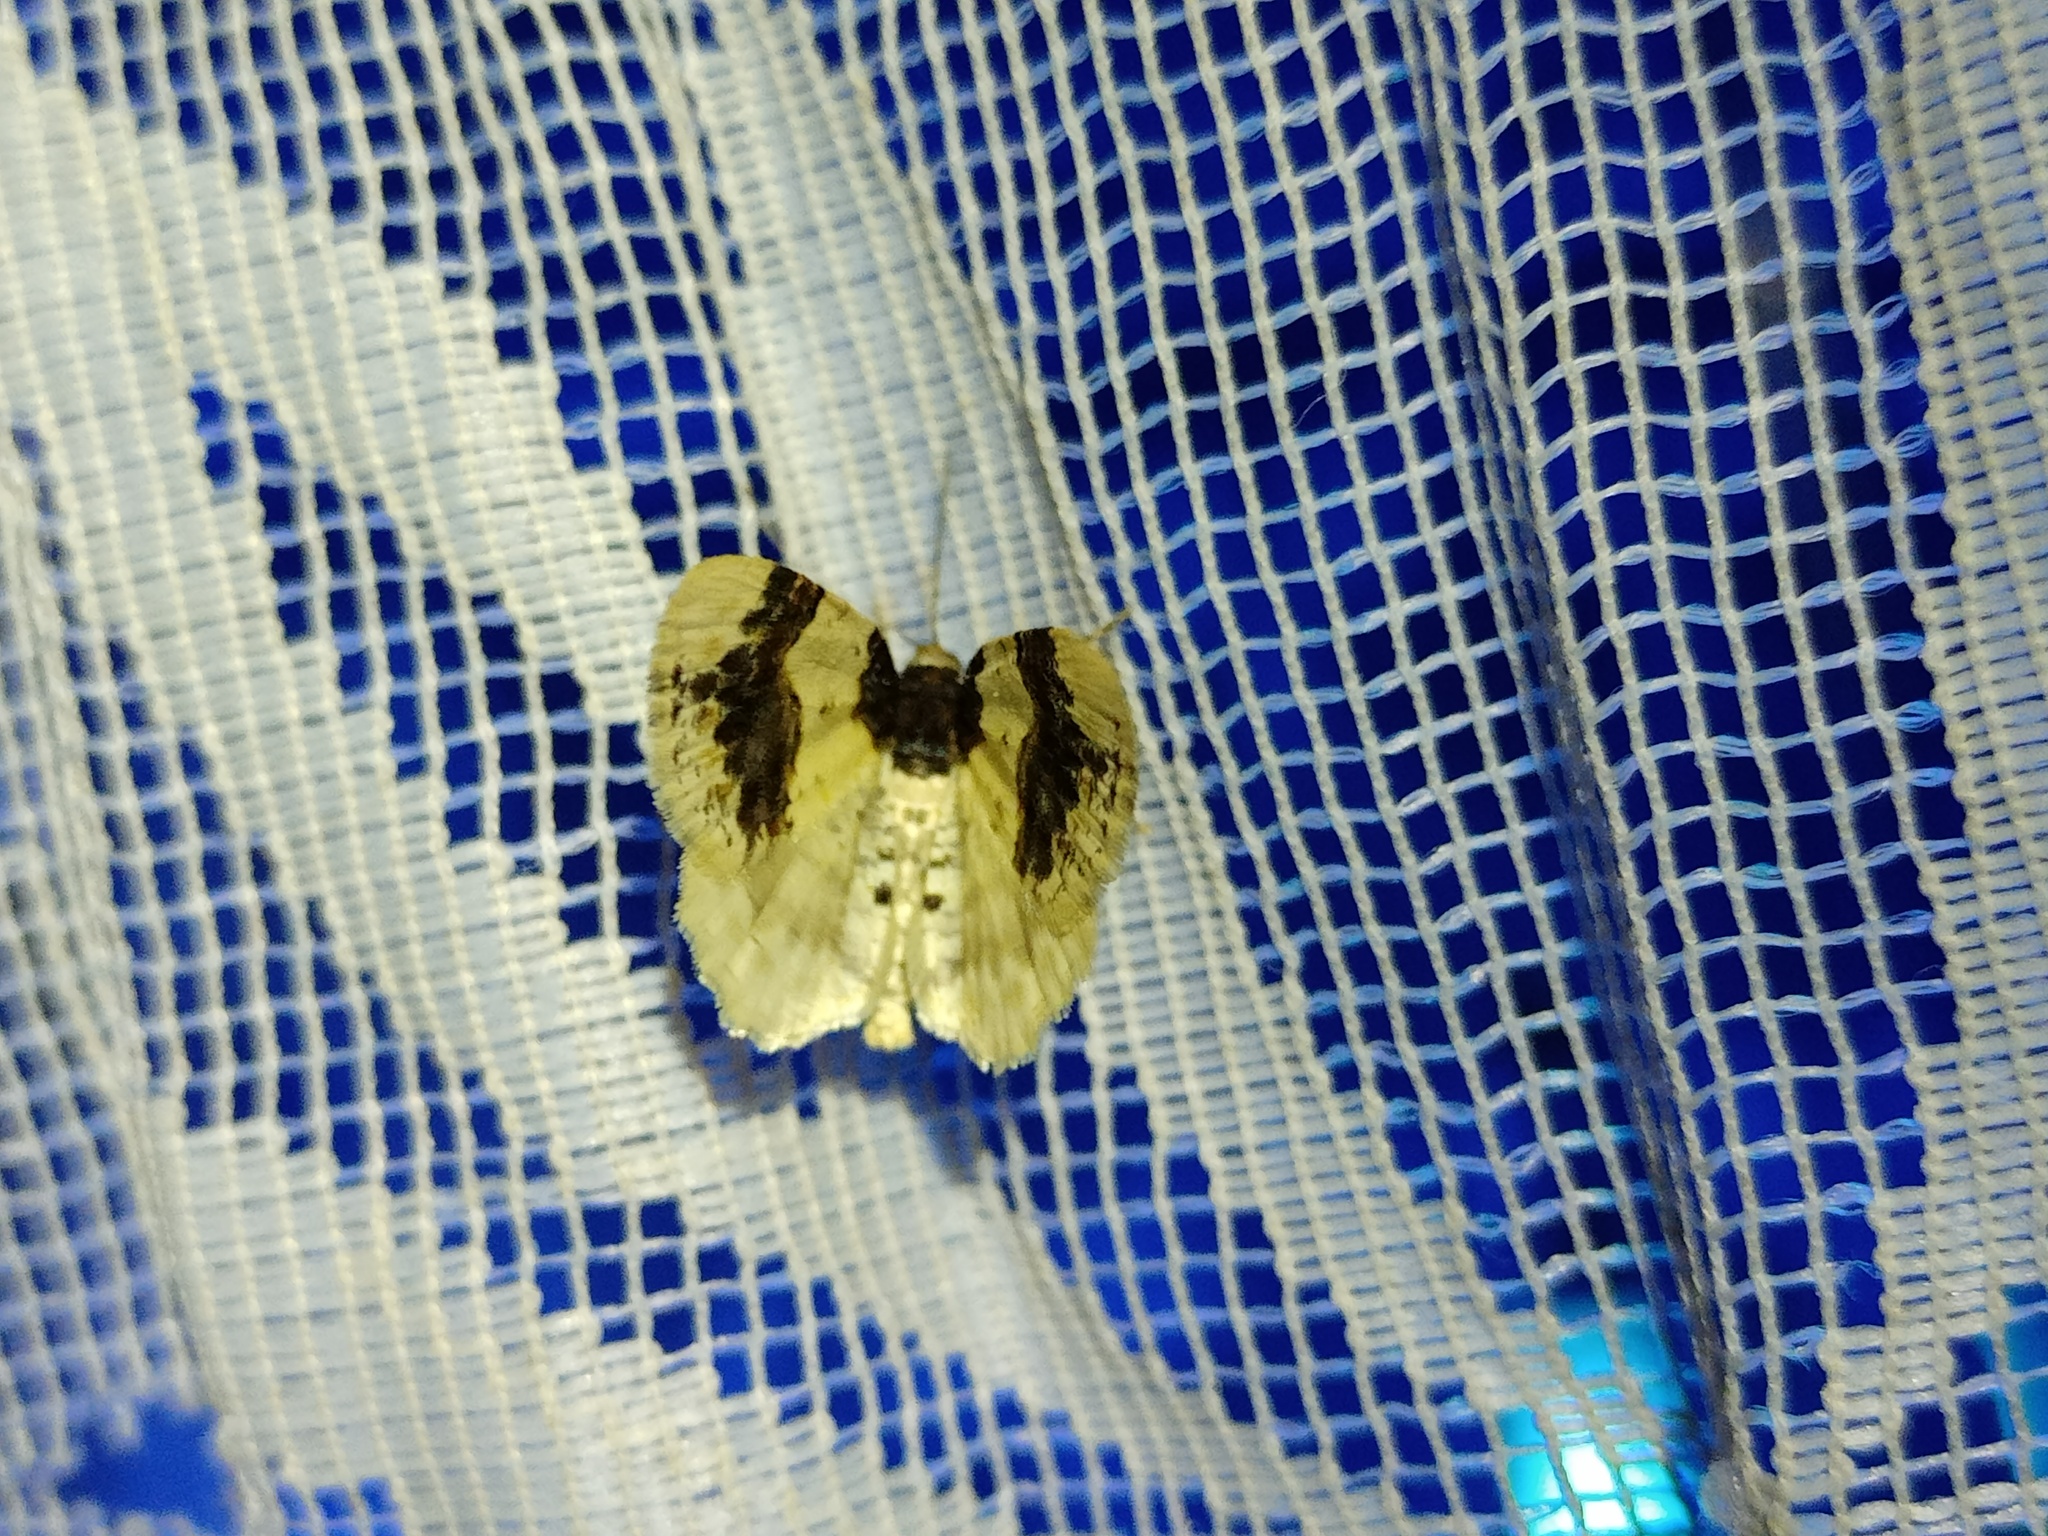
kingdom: Animalia
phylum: Arthropoda
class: Insecta
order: Lepidoptera
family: Geometridae
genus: Ligdia
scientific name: Ligdia adustata
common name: Scorched carpet
